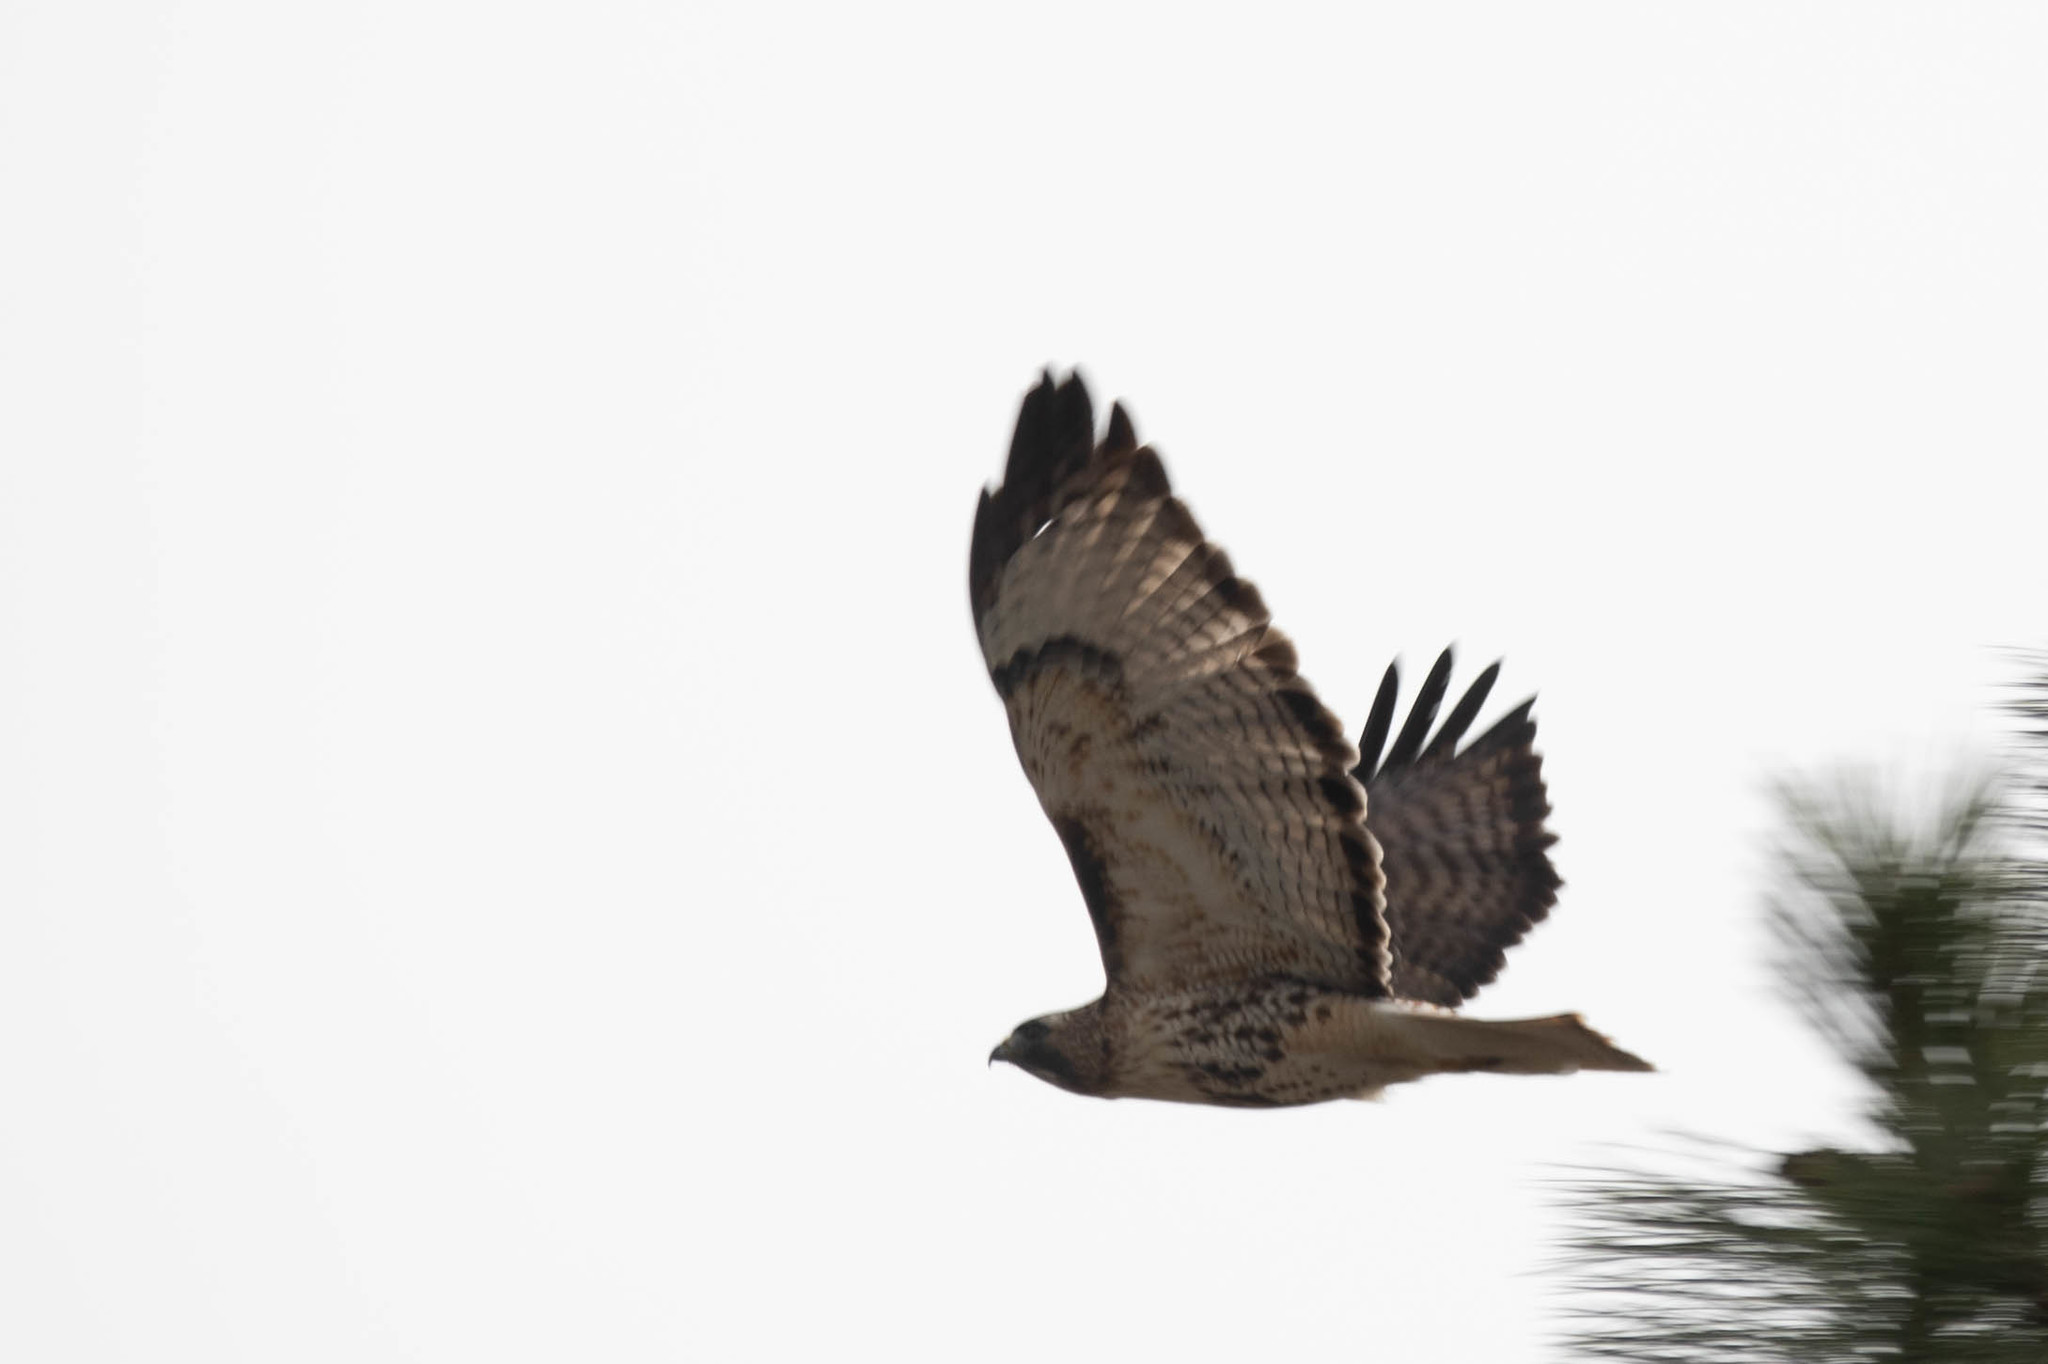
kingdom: Animalia
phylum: Chordata
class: Aves
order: Accipitriformes
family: Accipitridae
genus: Buteo
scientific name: Buteo jamaicensis
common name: Red-tailed hawk
